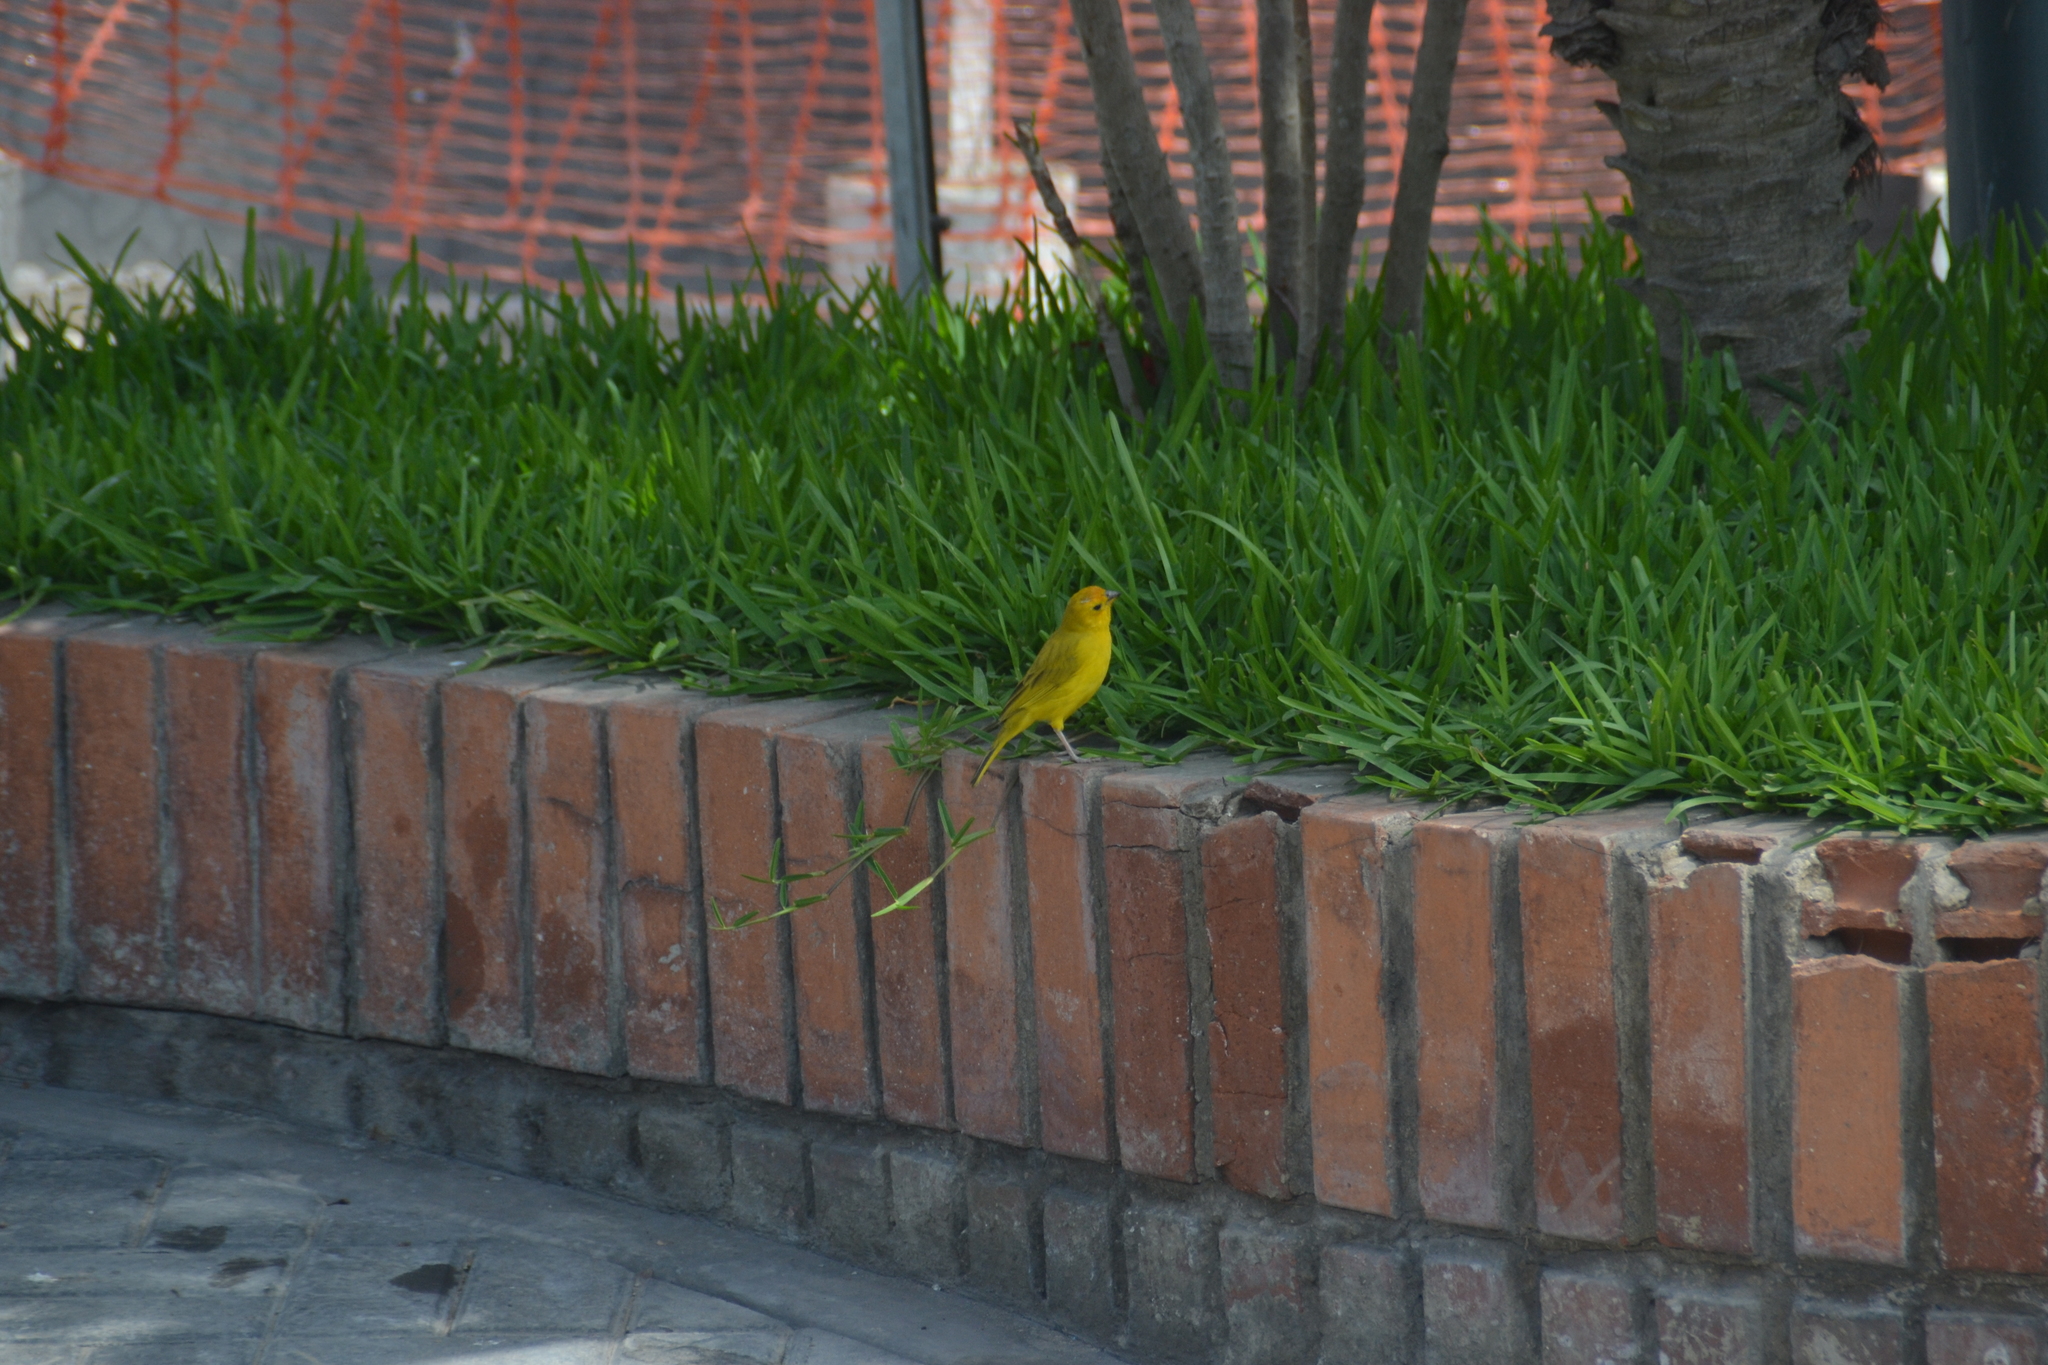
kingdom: Animalia
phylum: Chordata
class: Aves
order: Passeriformes
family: Thraupidae
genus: Sicalis
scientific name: Sicalis flaveola
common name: Saffron finch
